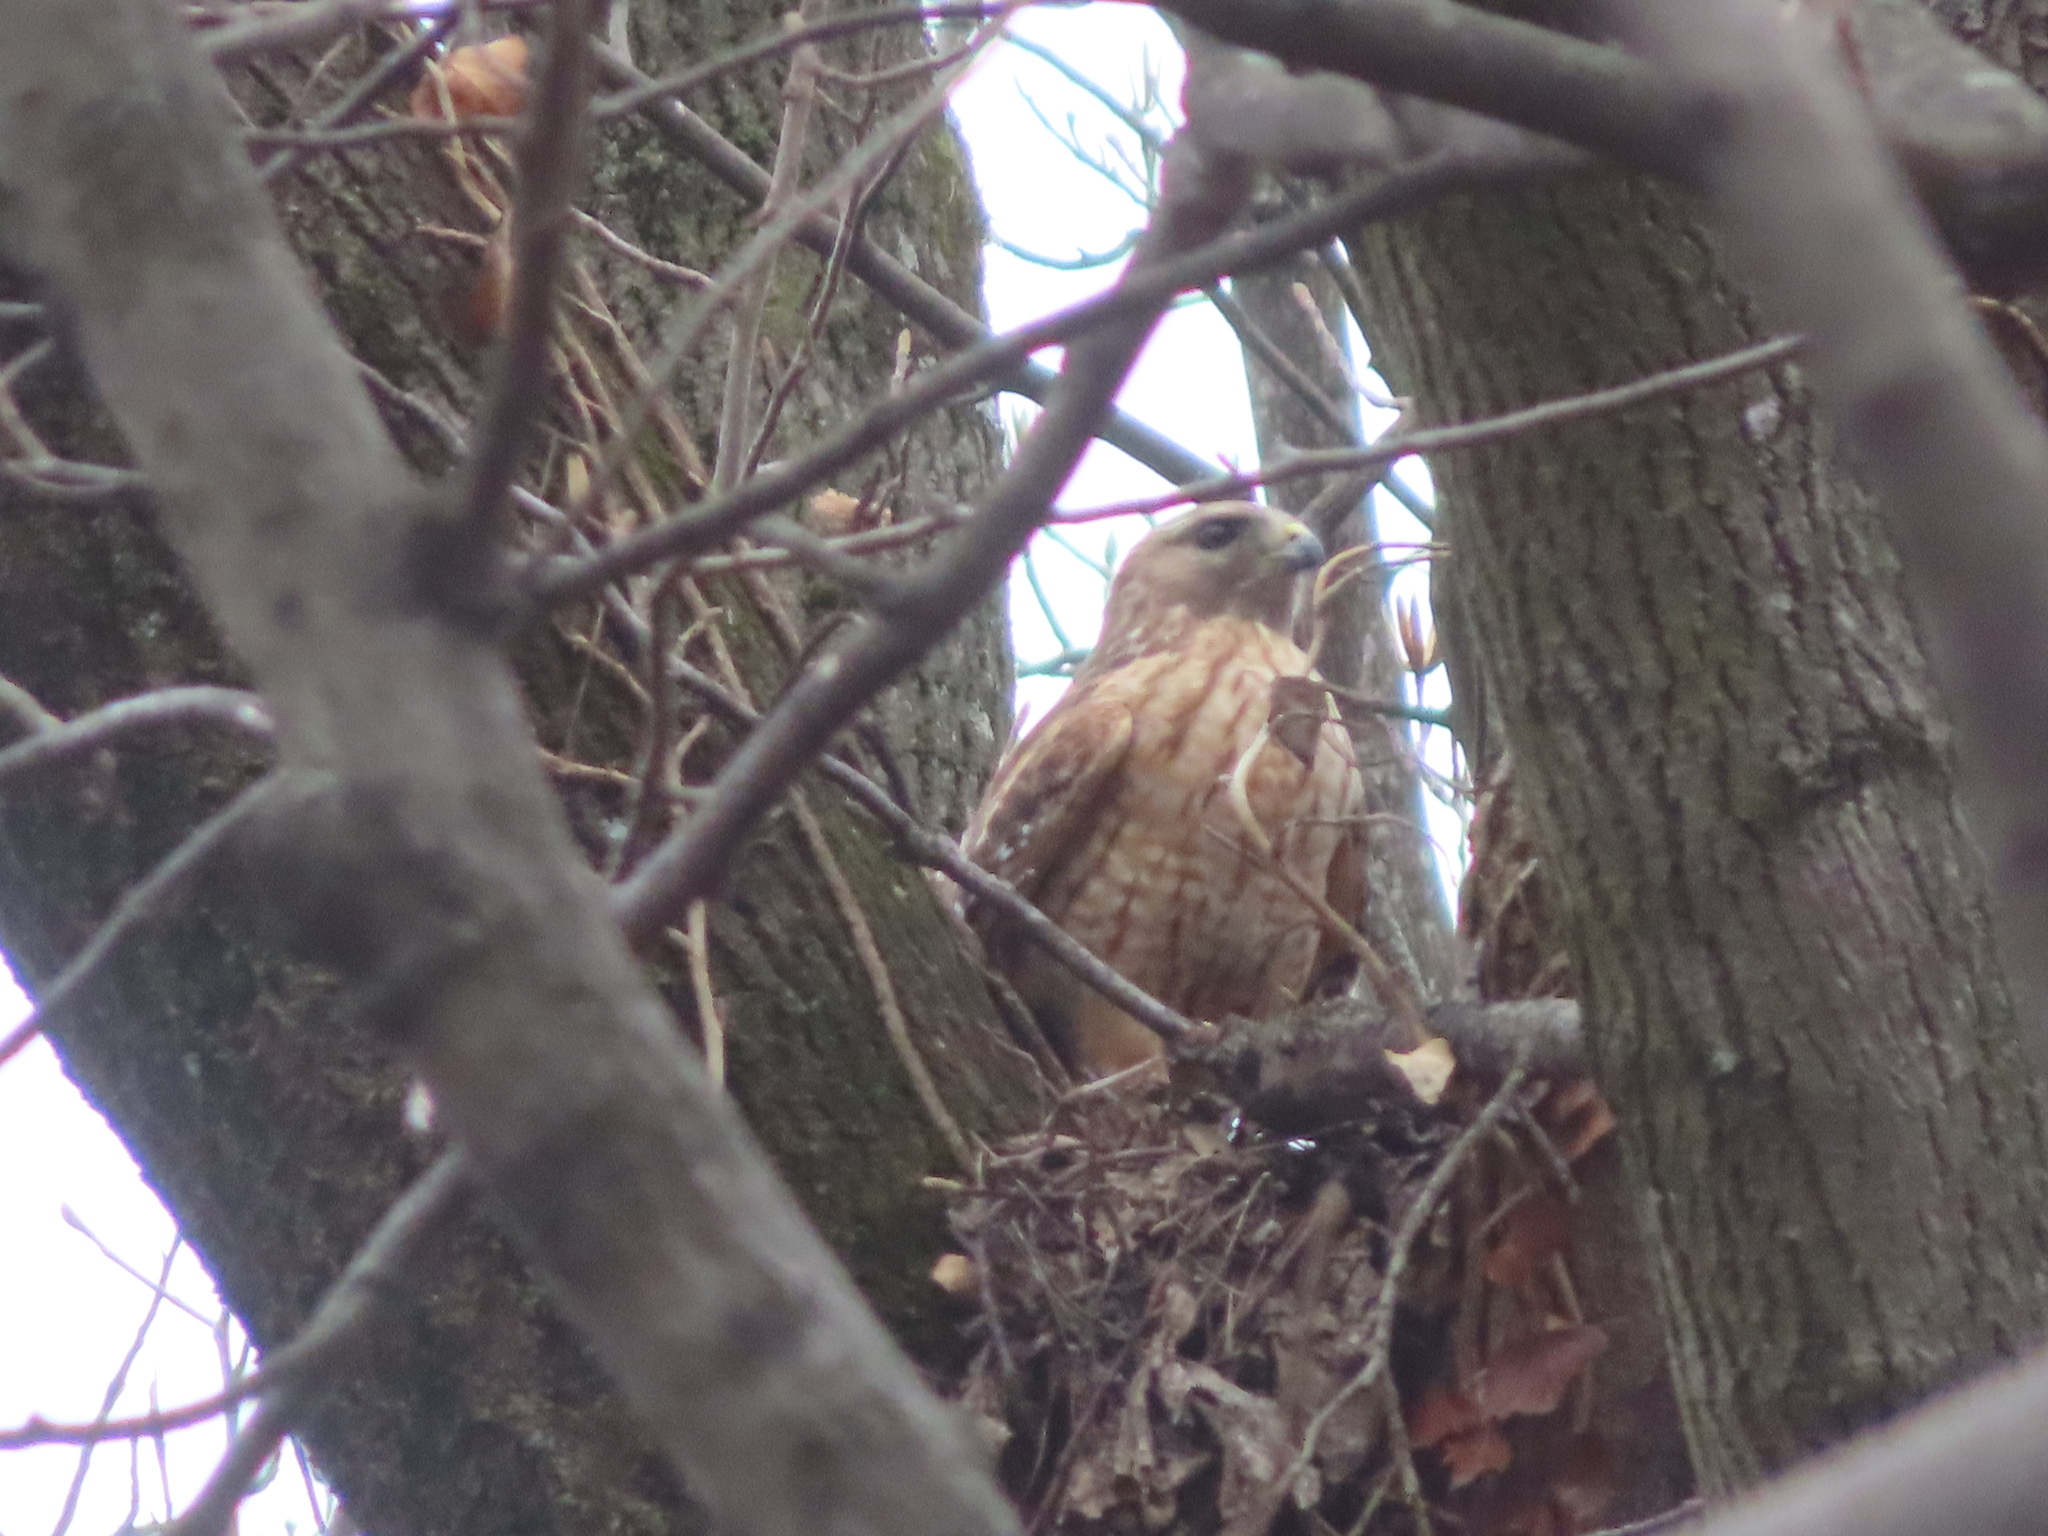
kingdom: Animalia
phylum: Chordata
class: Aves
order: Accipitriformes
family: Accipitridae
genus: Buteo
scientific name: Buteo lineatus
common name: Red-shouldered hawk
